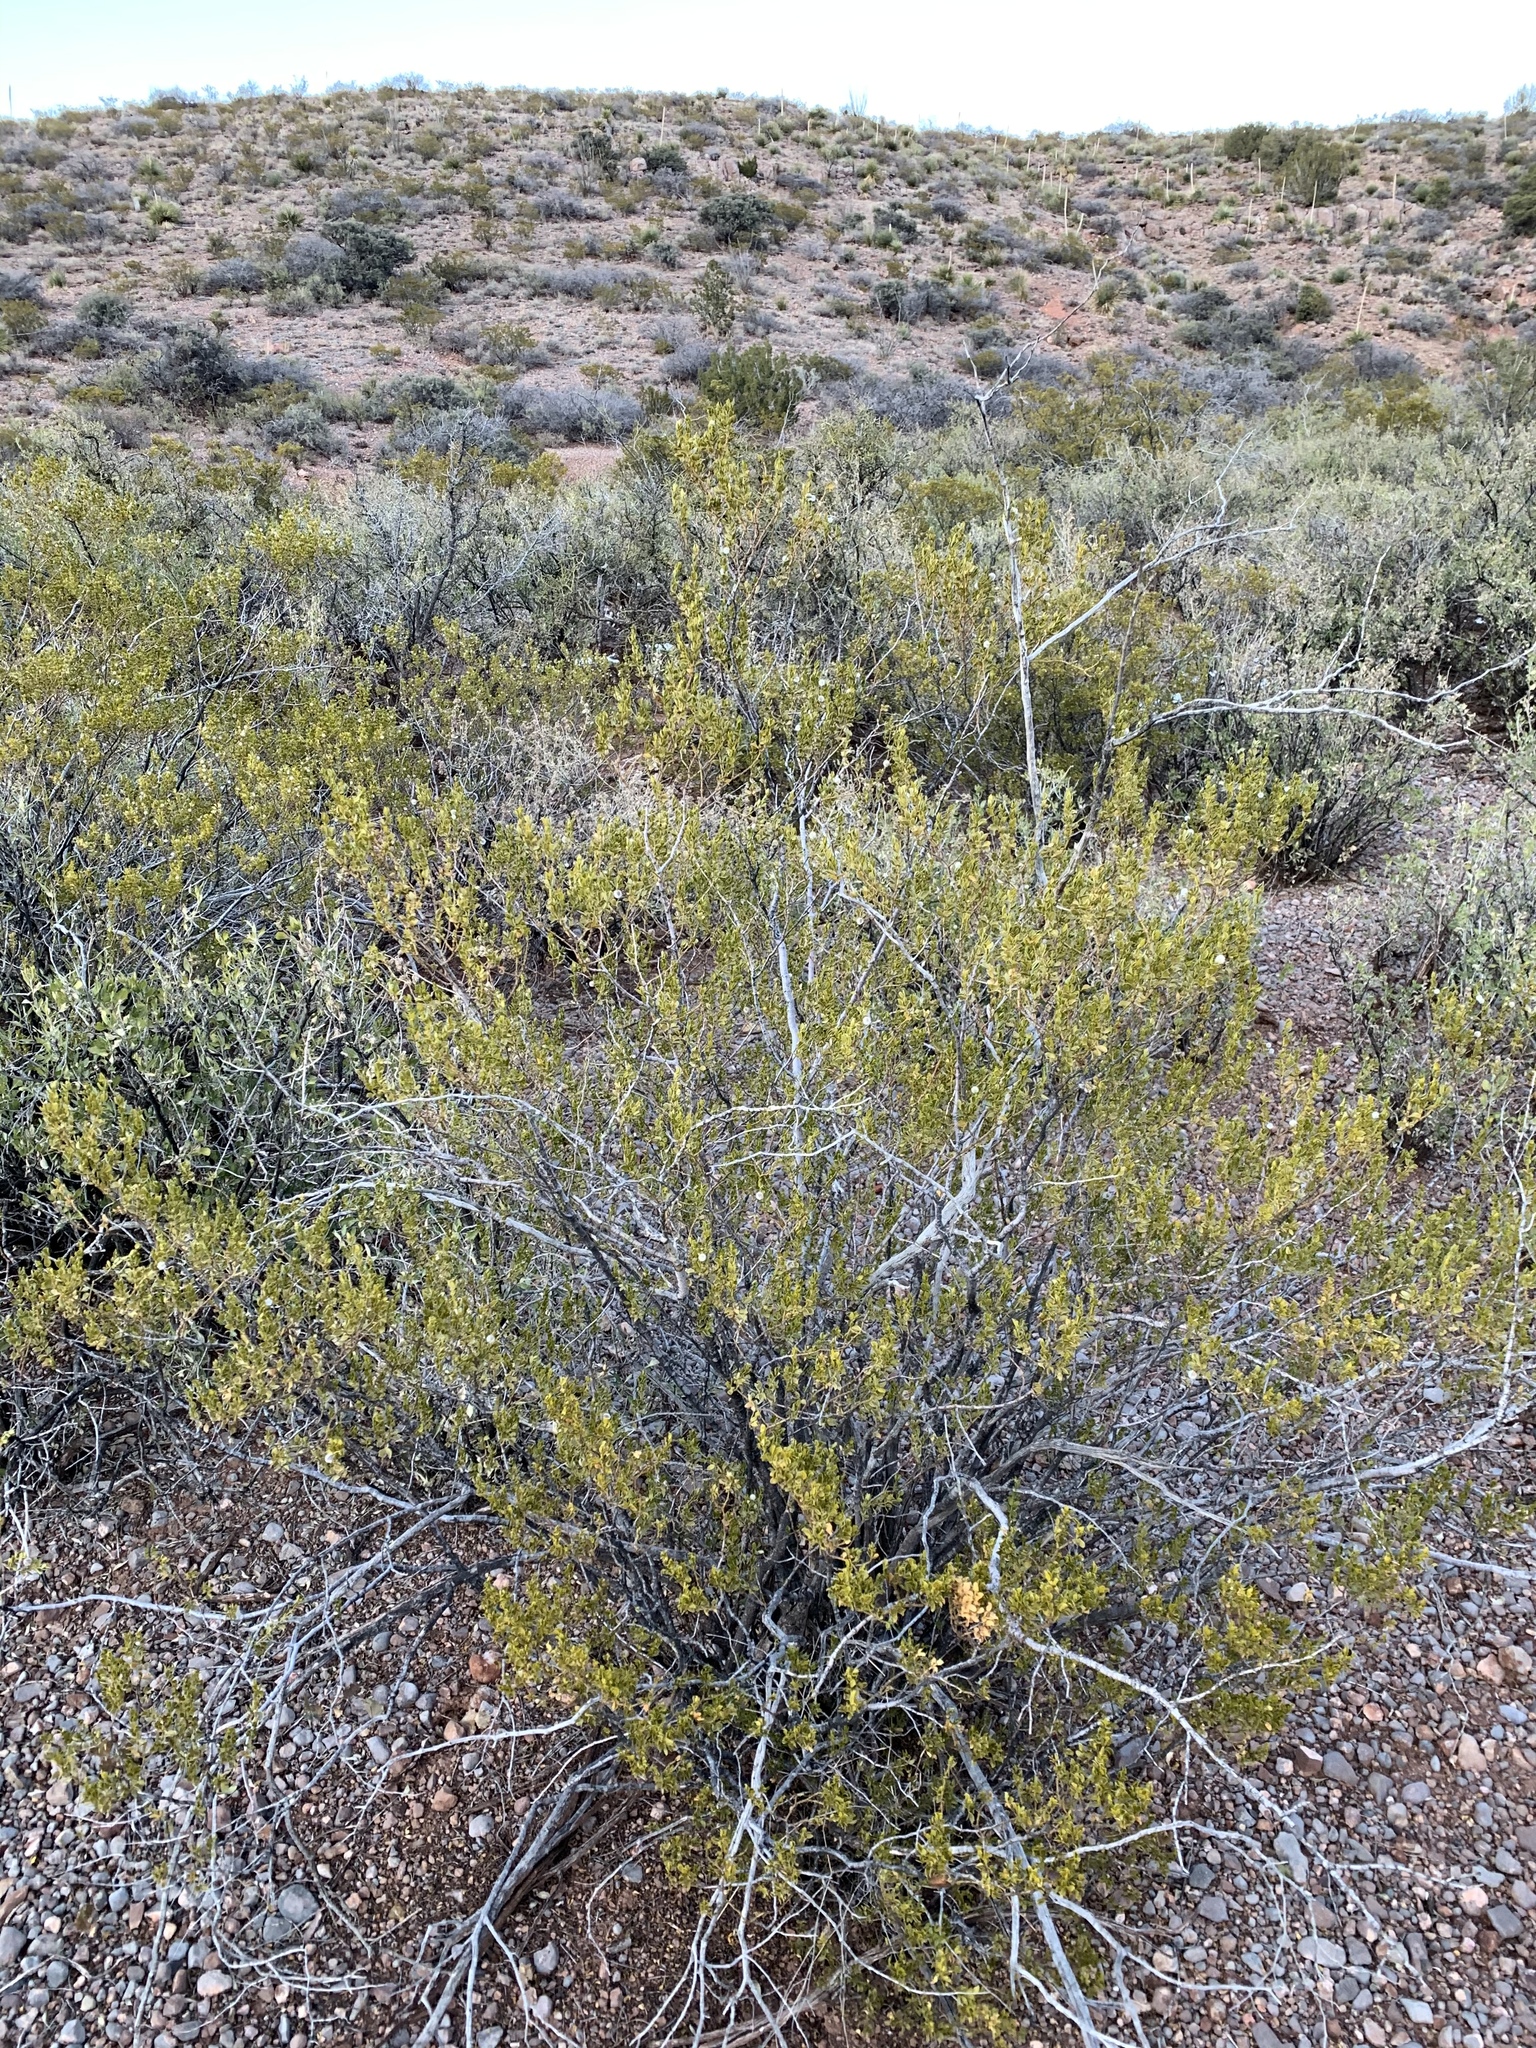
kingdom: Plantae
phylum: Tracheophyta
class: Magnoliopsida
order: Zygophyllales
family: Zygophyllaceae
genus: Larrea
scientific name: Larrea tridentata
